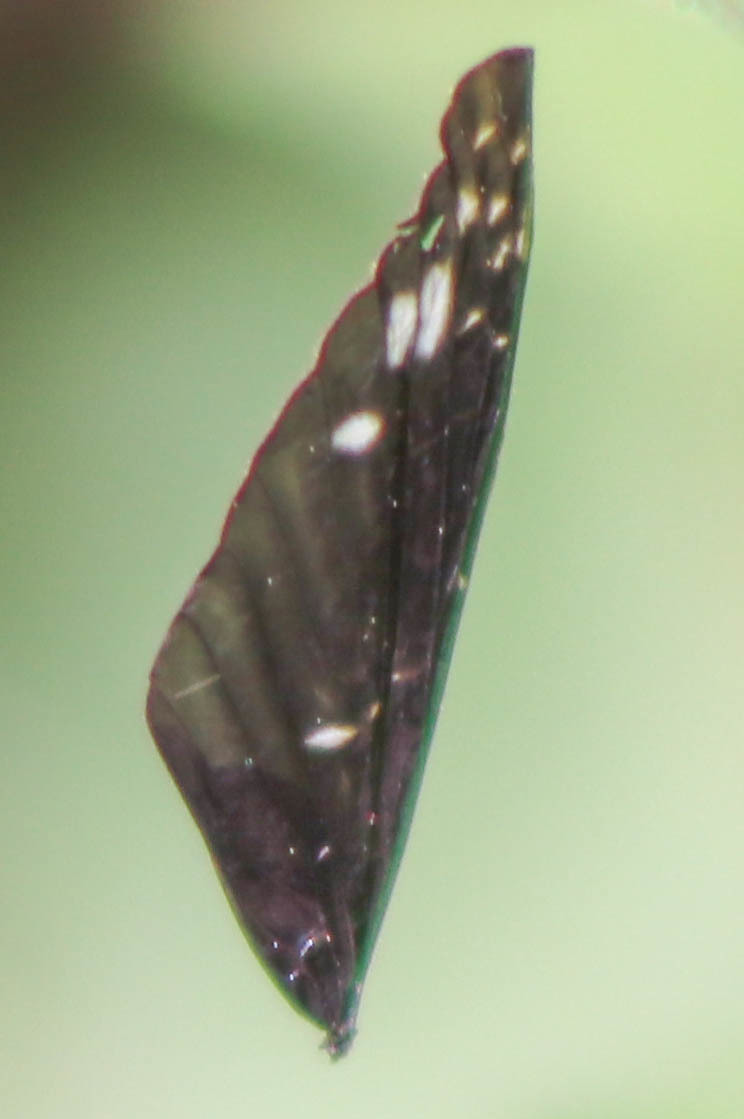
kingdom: Animalia
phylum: Arthropoda
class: Insecta
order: Megaloptera
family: Corydalidae
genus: Nigronia
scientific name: Nigronia serricornis
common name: Serrate dark fishfly
